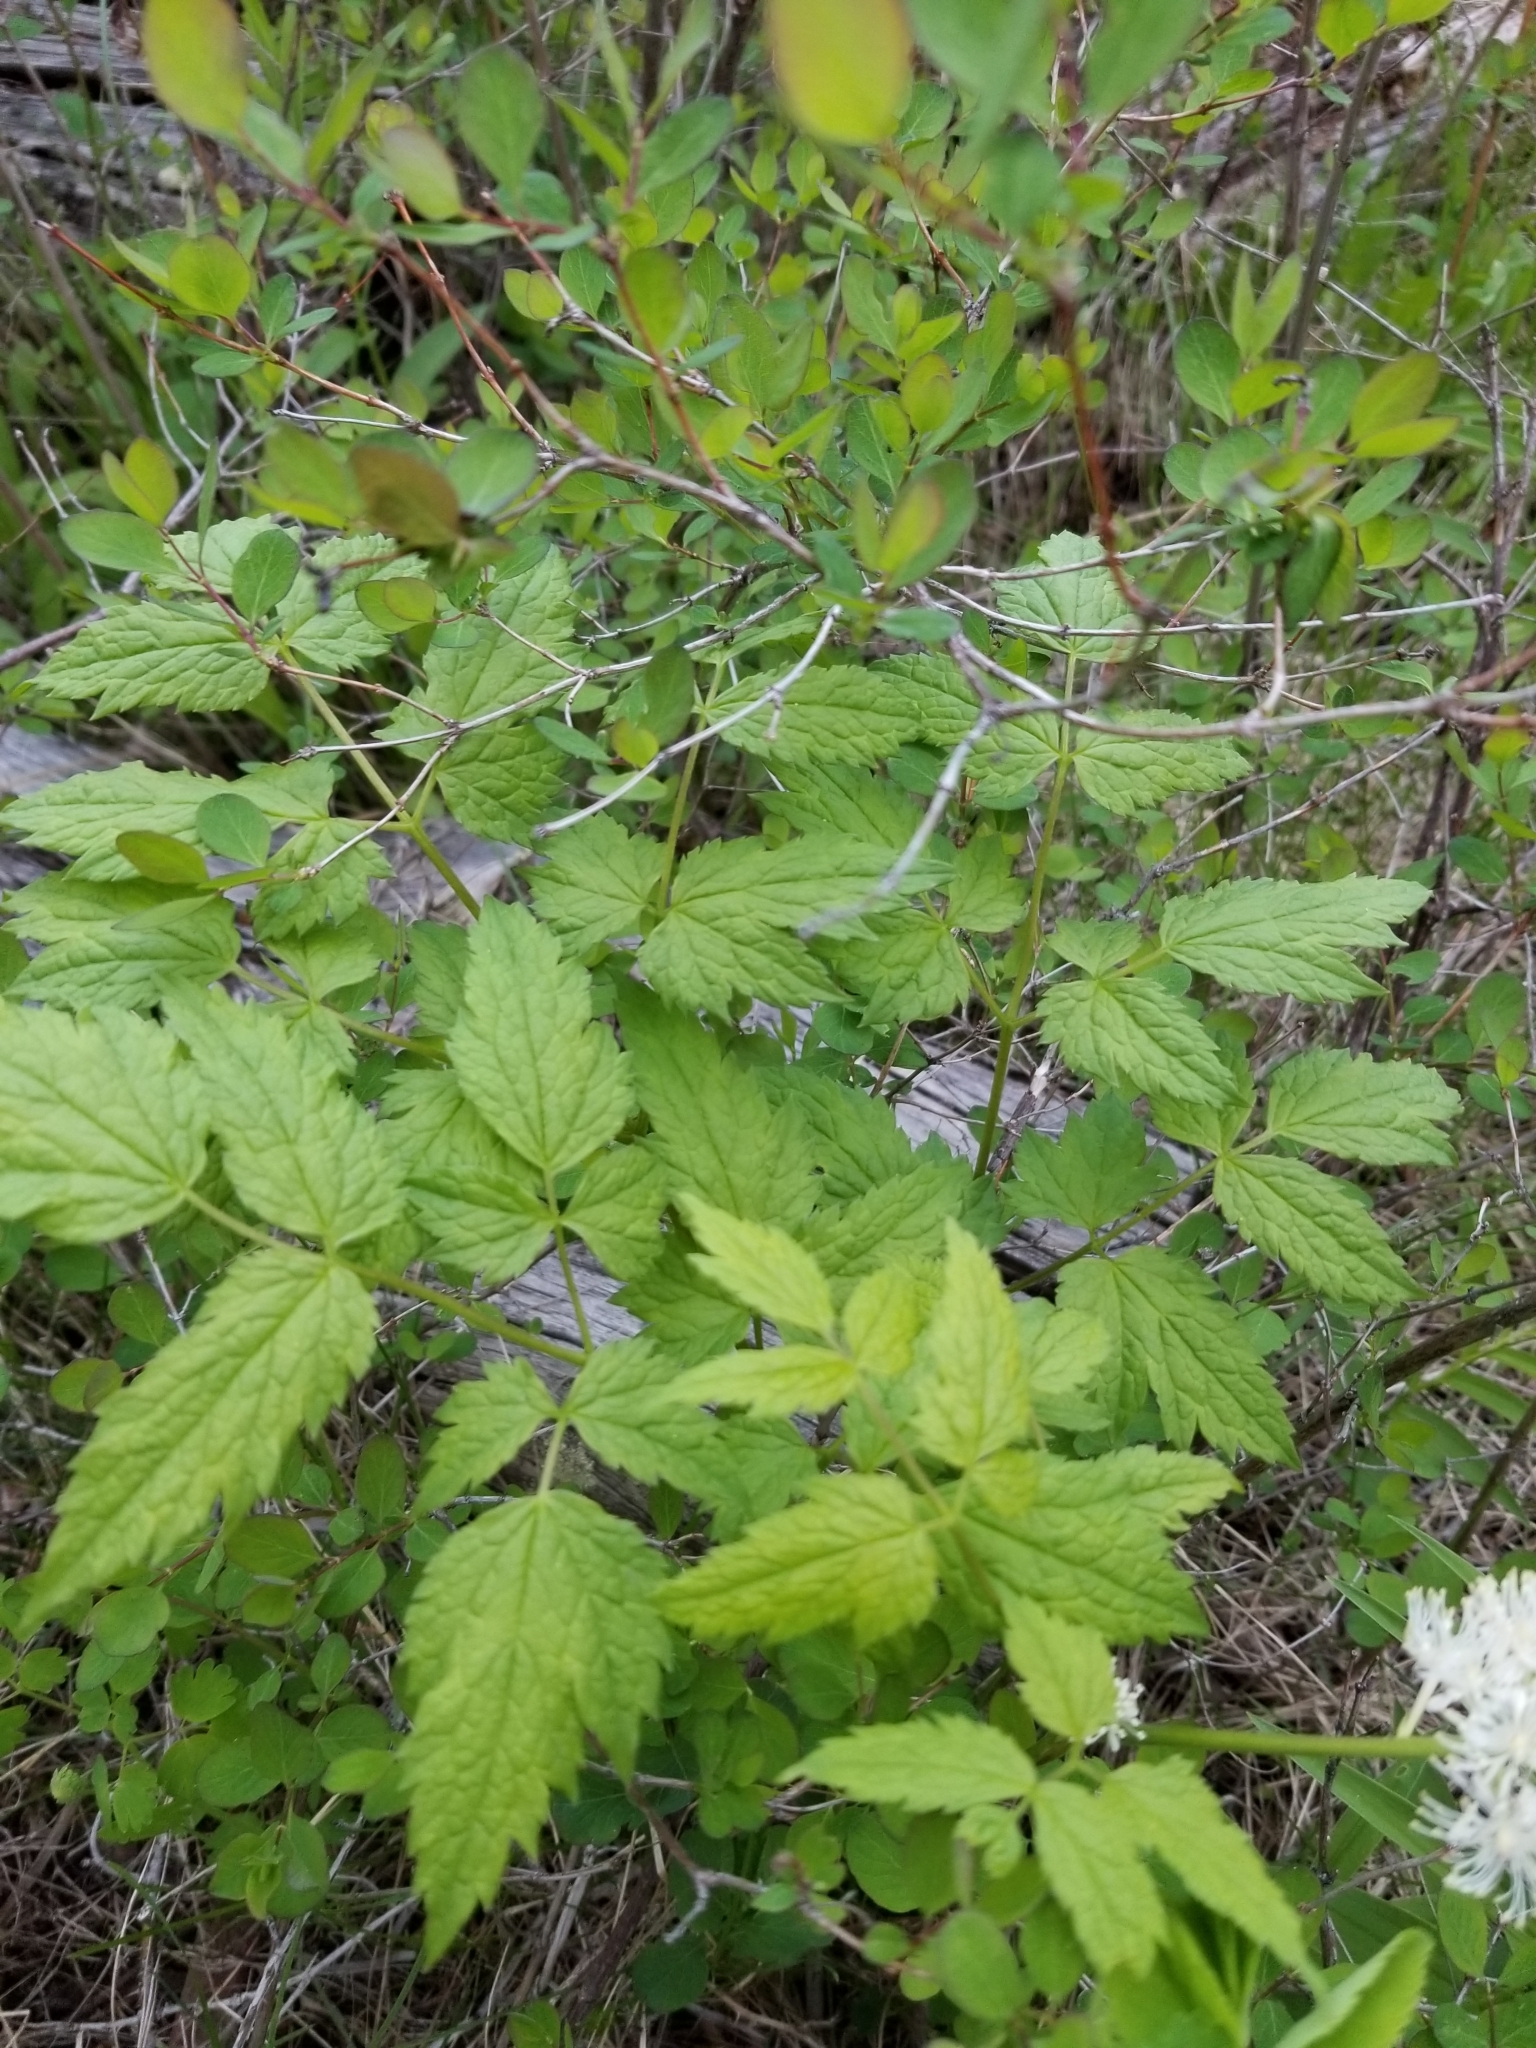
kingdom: Plantae
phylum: Tracheophyta
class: Magnoliopsida
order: Ranunculales
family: Ranunculaceae
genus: Actaea
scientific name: Actaea rubra
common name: Red baneberry
